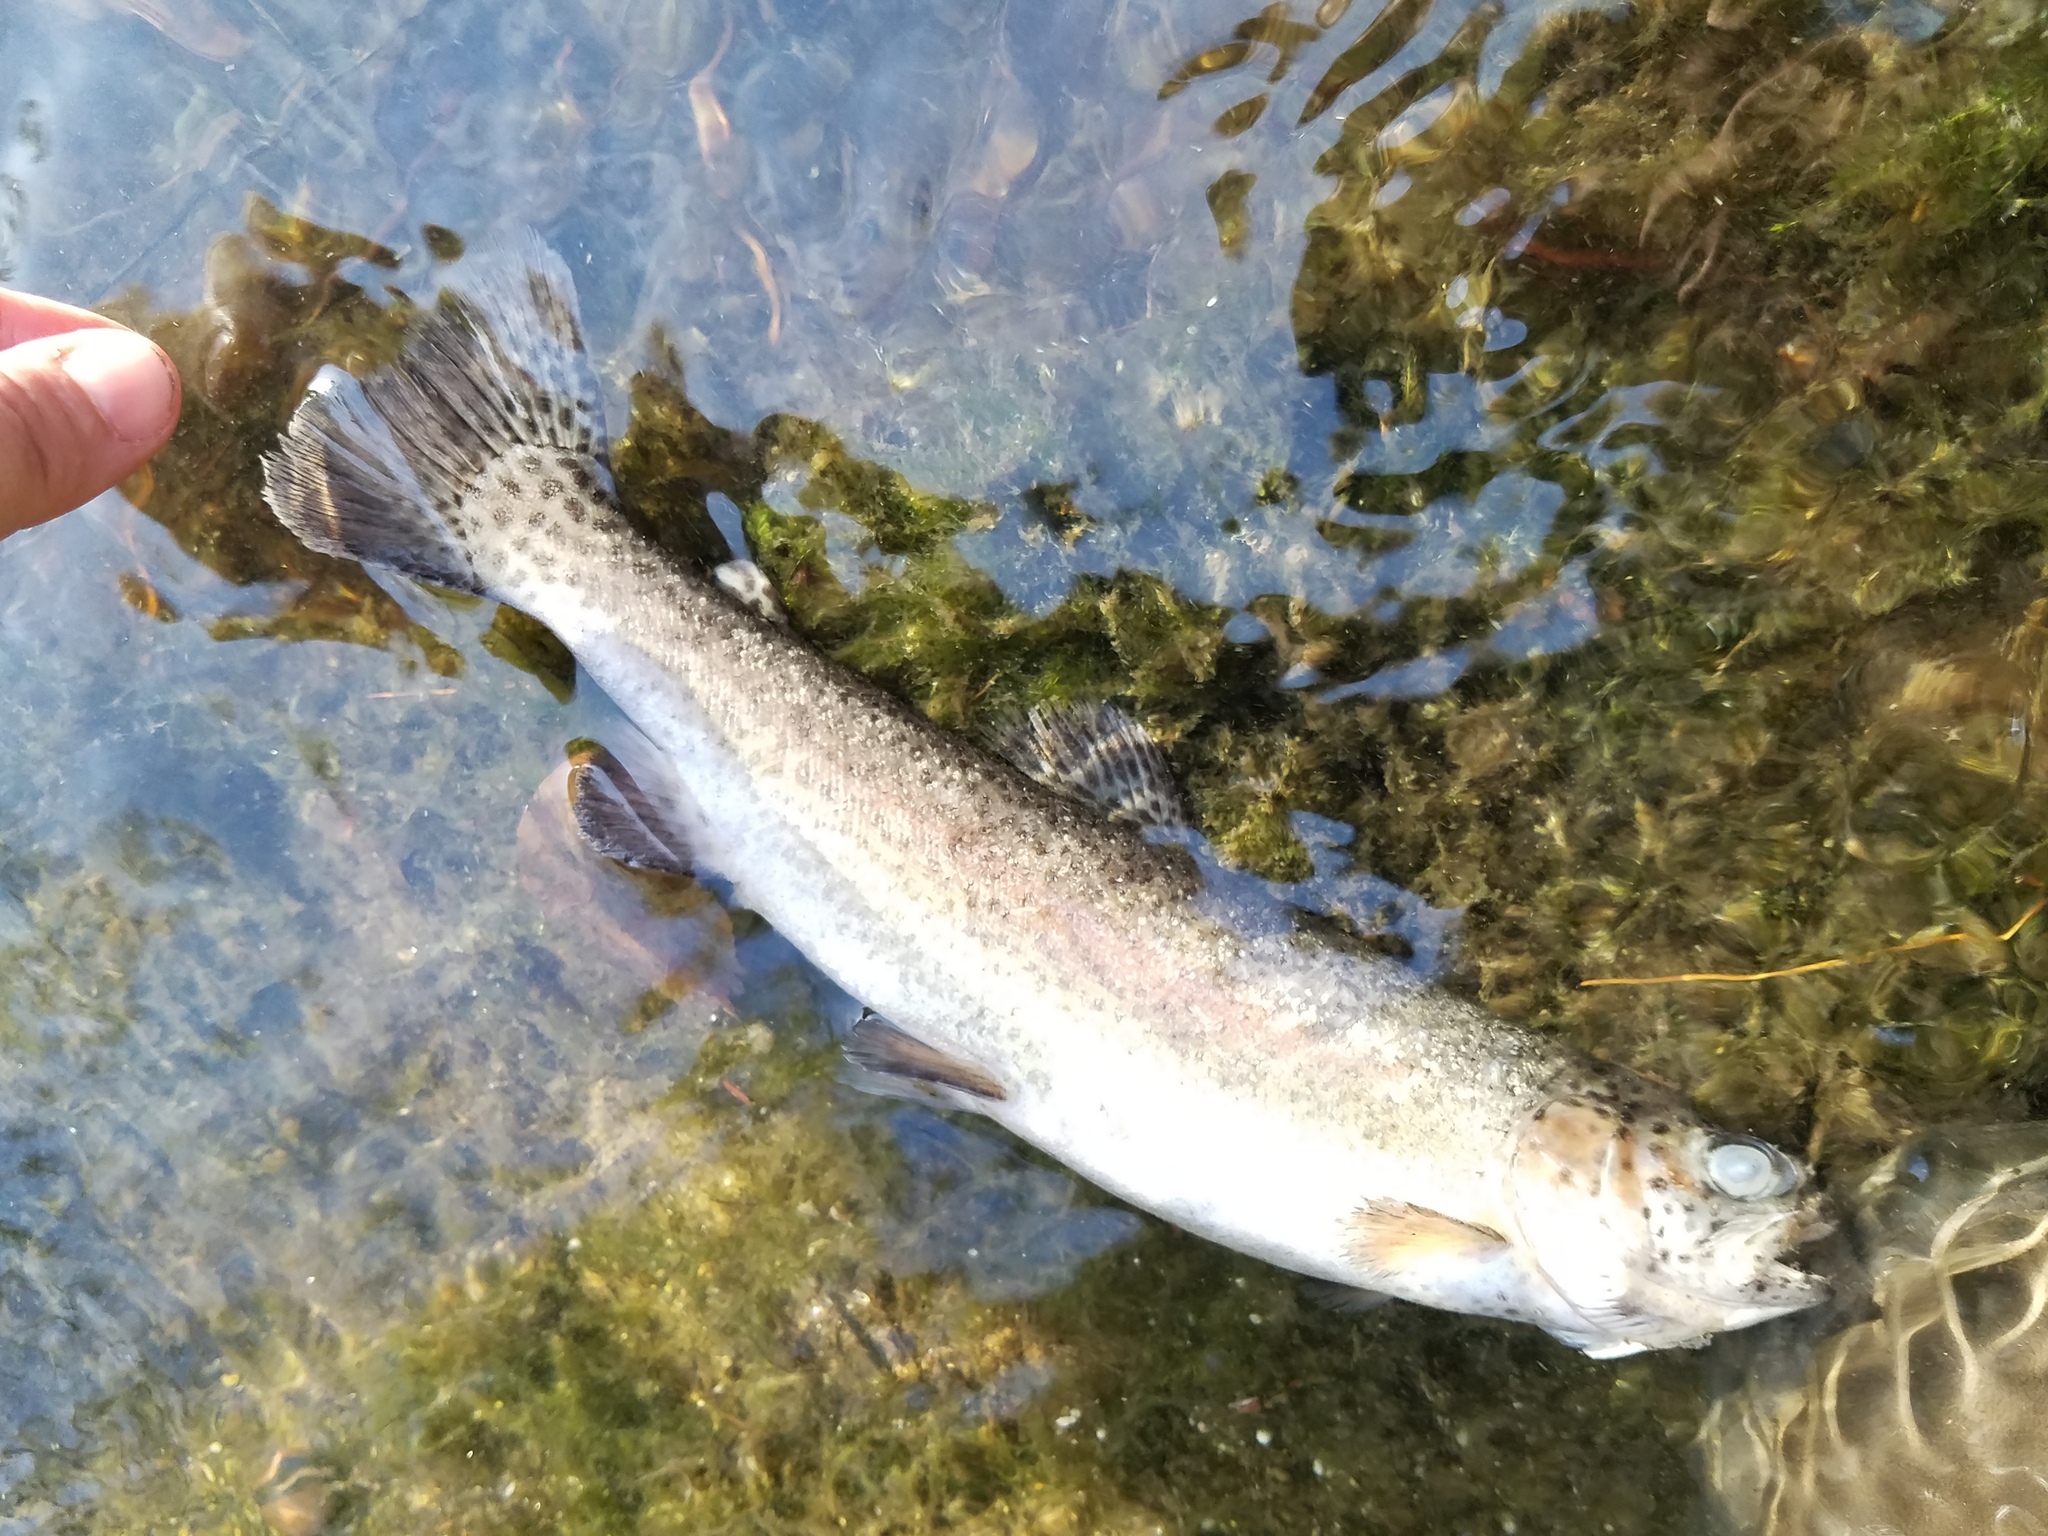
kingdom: Animalia
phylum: Chordata
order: Salmoniformes
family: Salmonidae
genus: Oncorhynchus
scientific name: Oncorhynchus mykiss
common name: Rainbow trout
